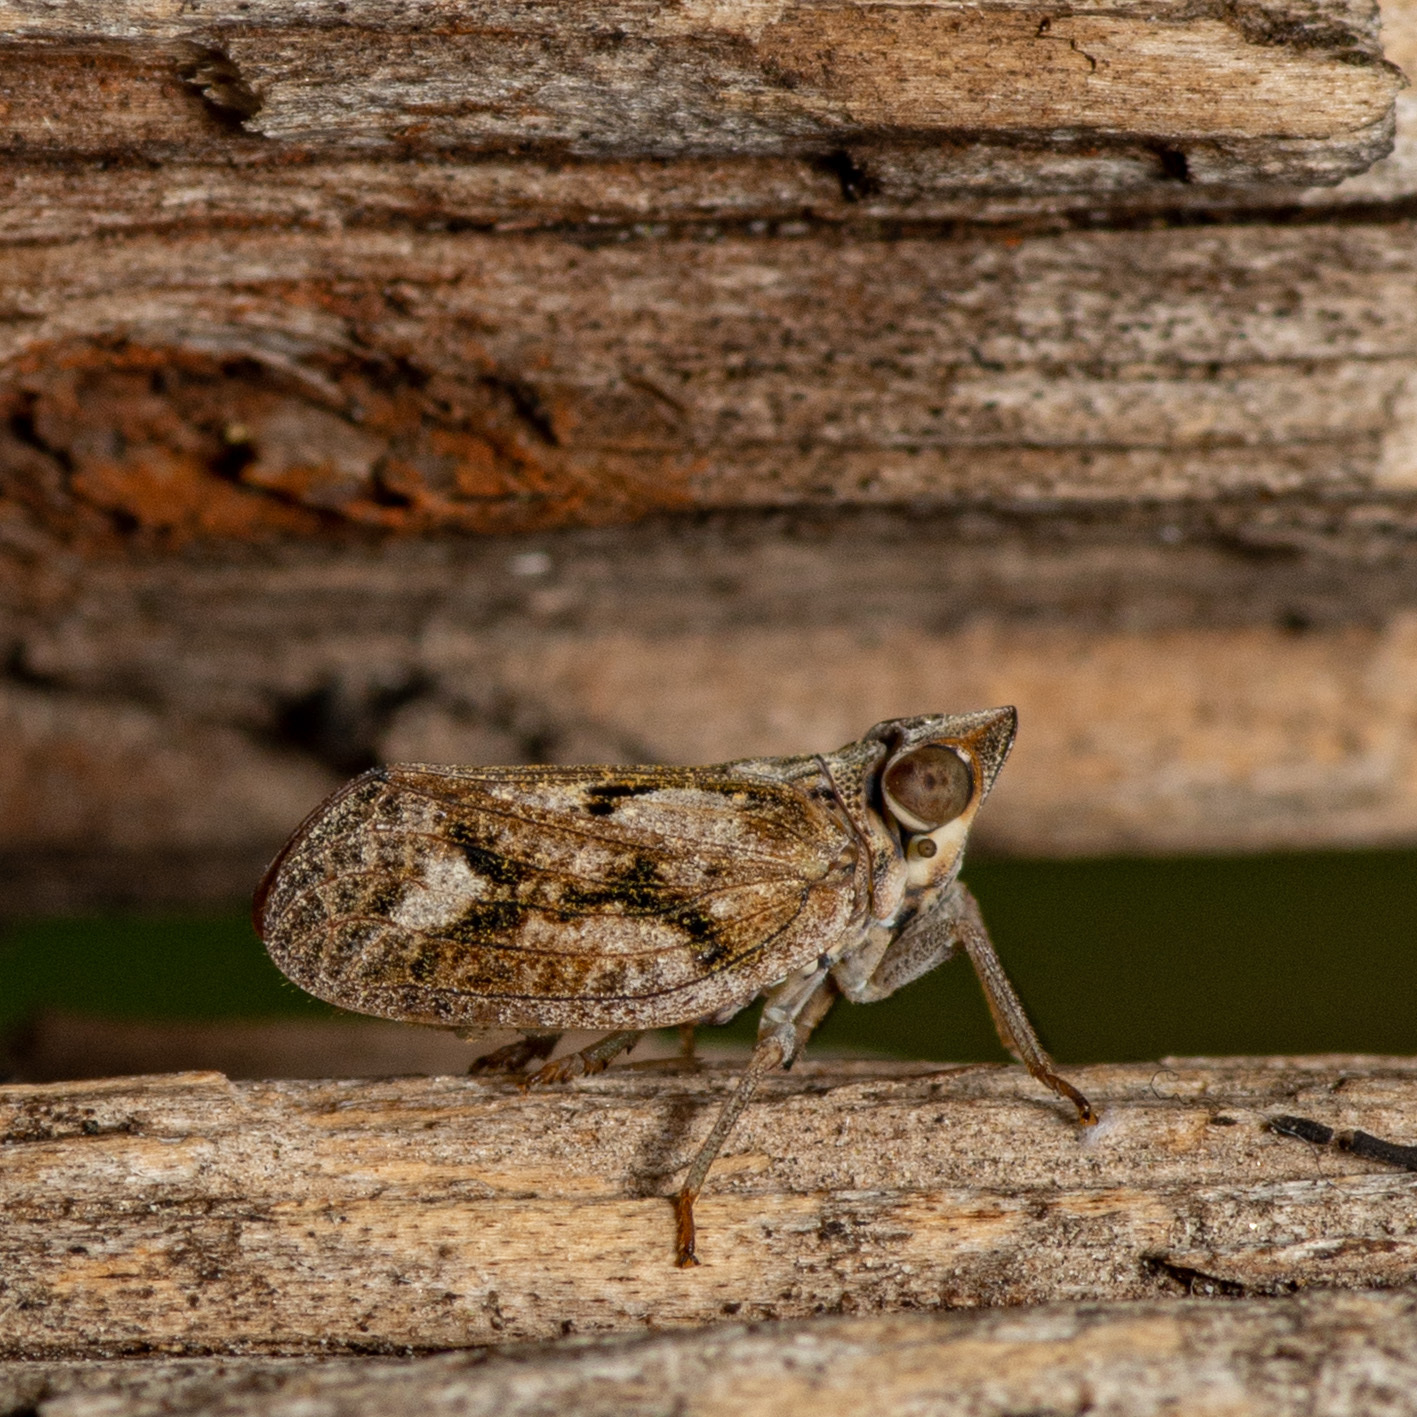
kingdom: Animalia
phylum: Arthropoda
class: Insecta
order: Hemiptera
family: Issidae
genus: Fowlerium
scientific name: Fowlerium acutum
